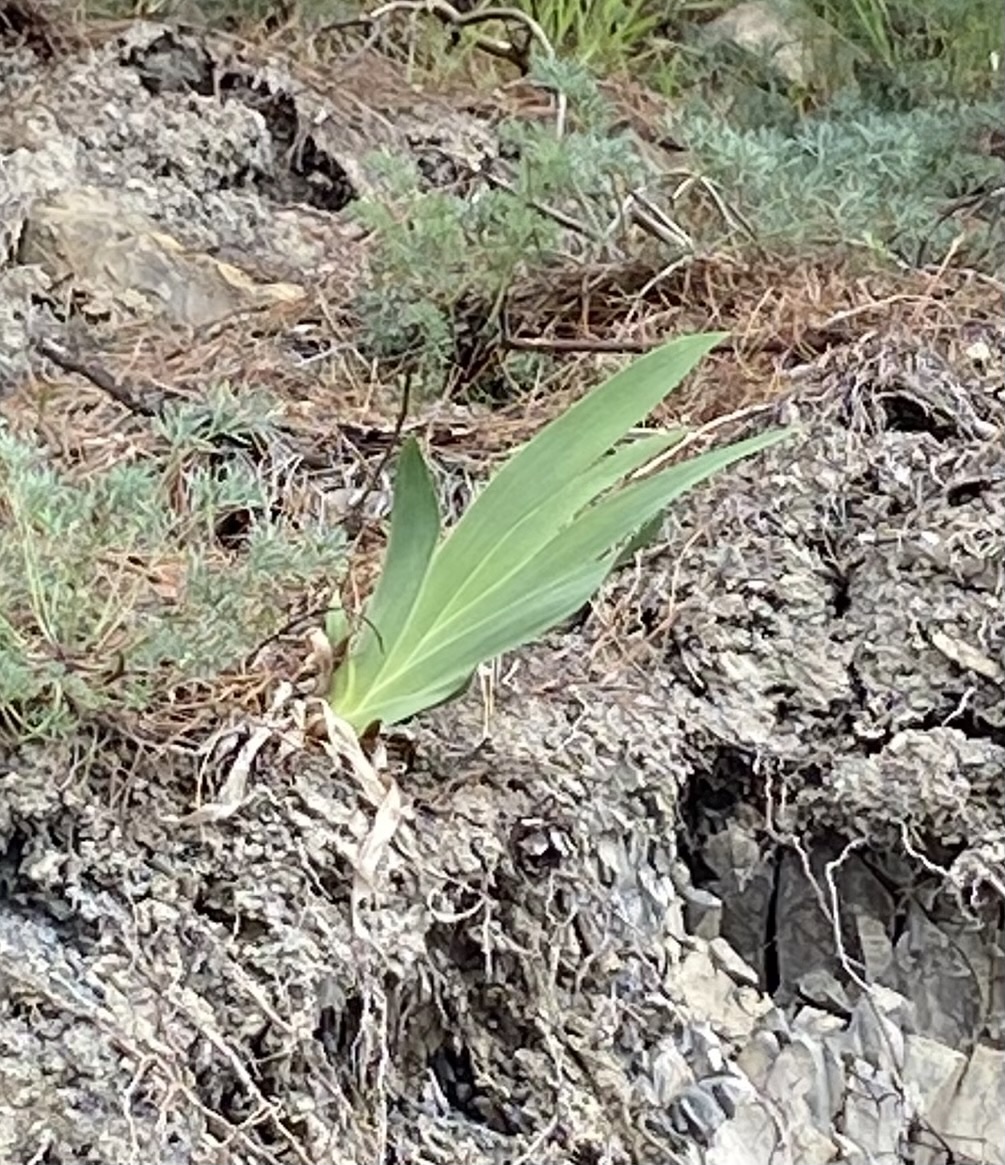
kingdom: Plantae
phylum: Tracheophyta
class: Liliopsida
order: Asparagales
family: Iridaceae
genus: Iris
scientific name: Iris pumila
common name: Dwarf iris
